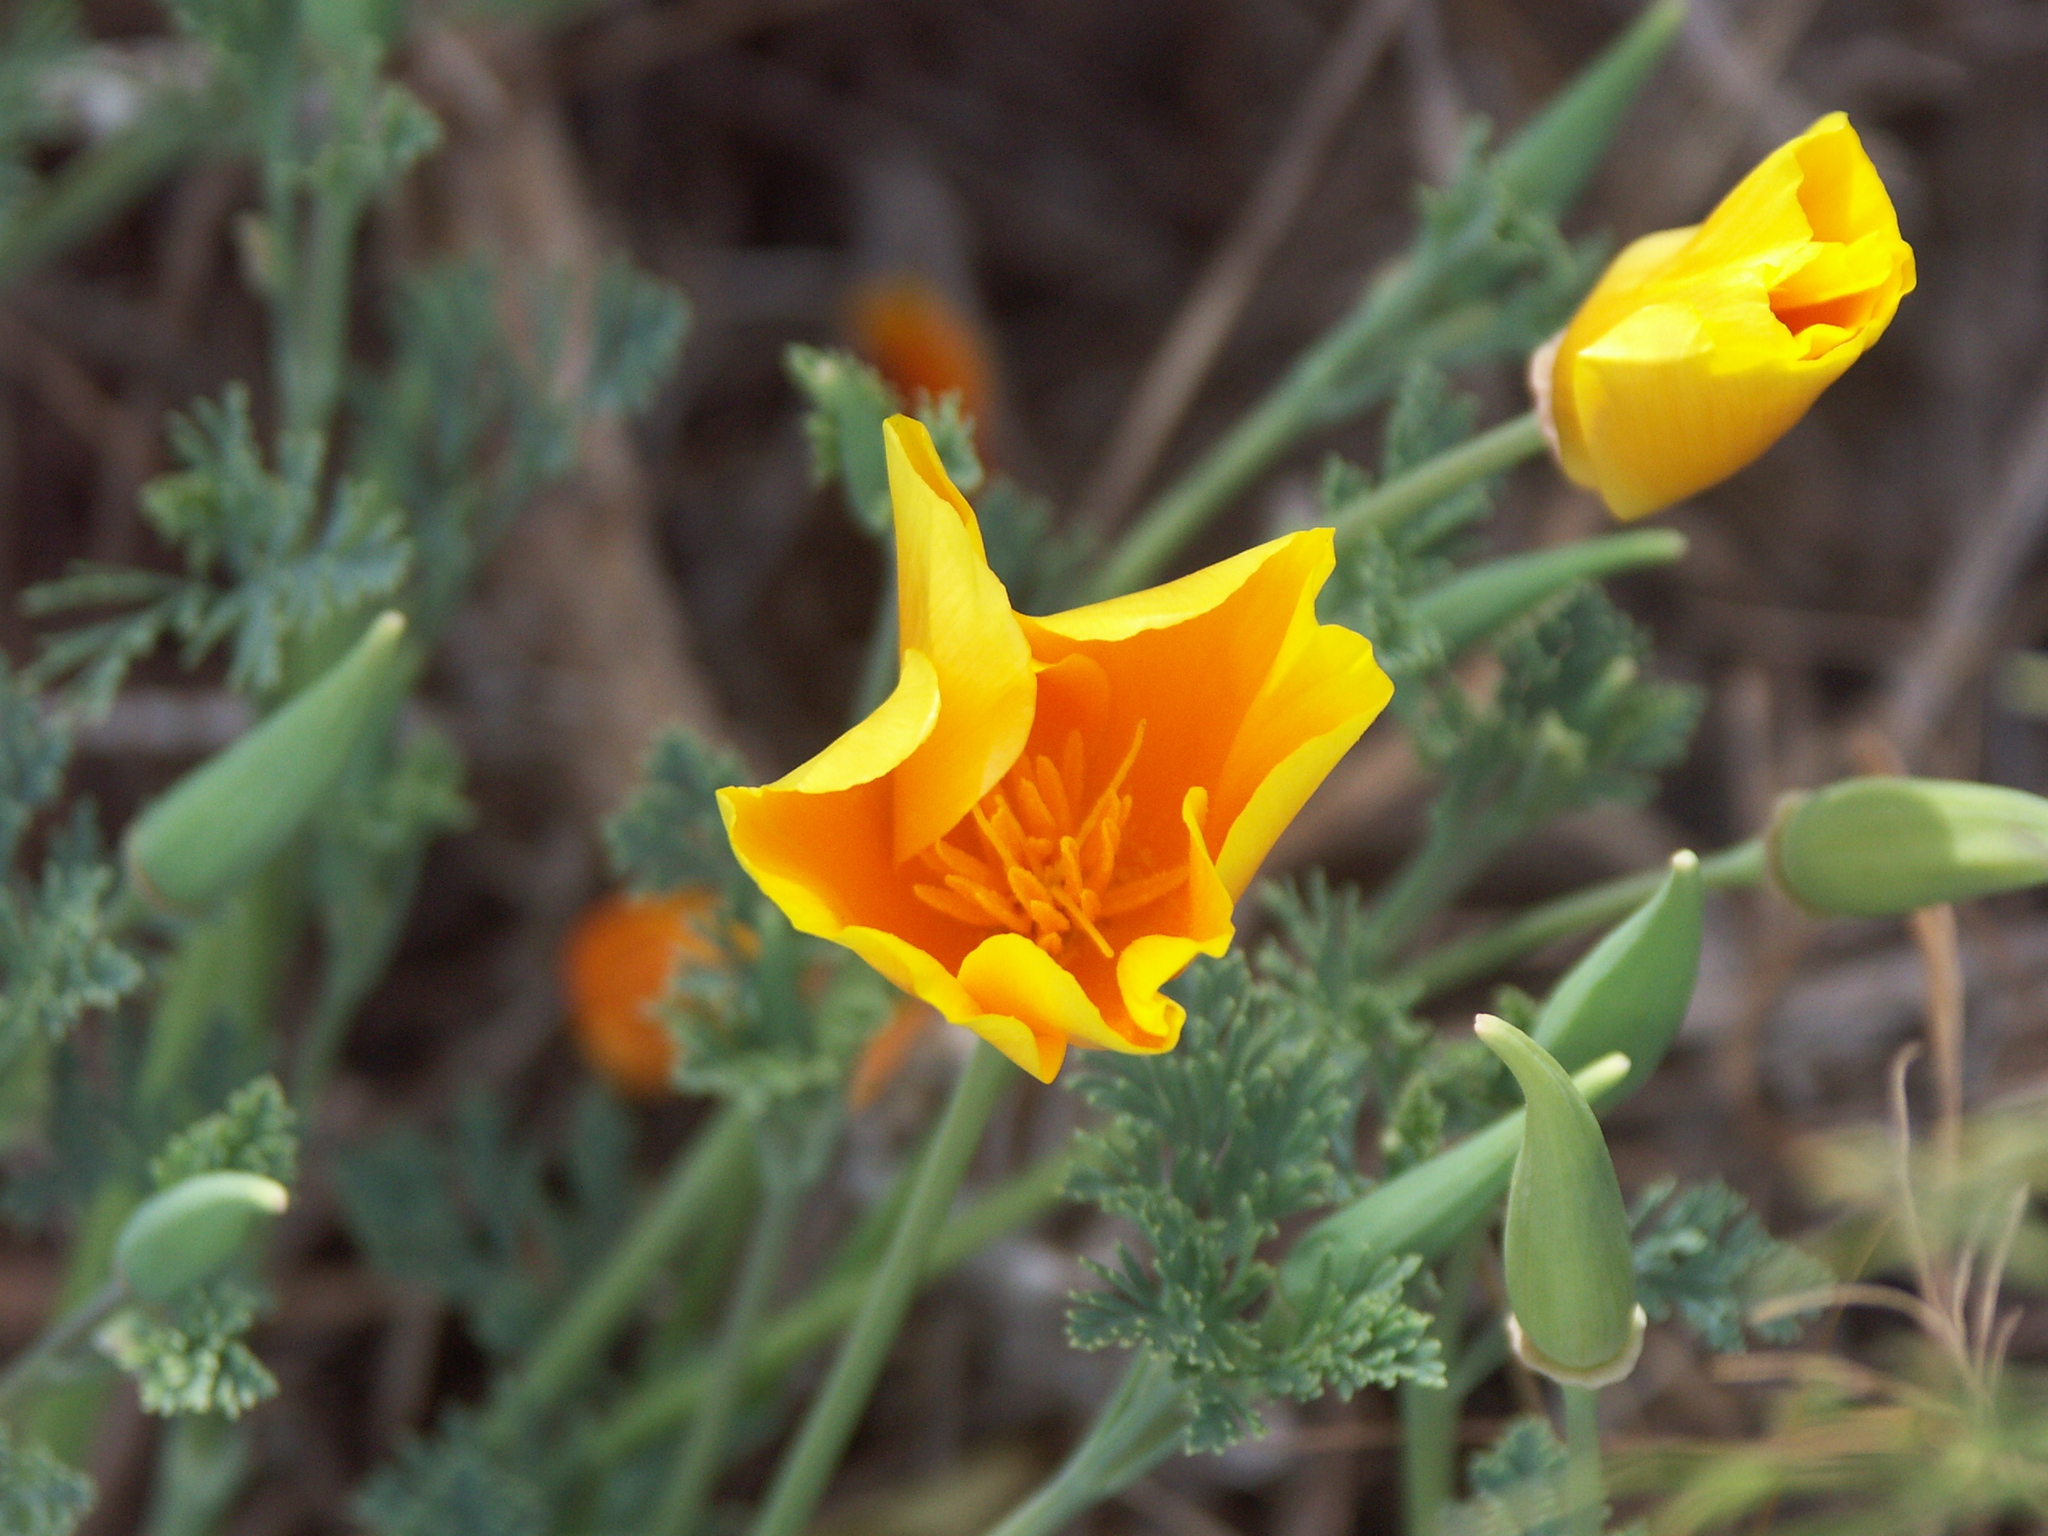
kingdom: Plantae
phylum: Tracheophyta
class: Magnoliopsida
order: Ranunculales
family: Papaveraceae
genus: Eschscholzia
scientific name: Eschscholzia californica
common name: California poppy
